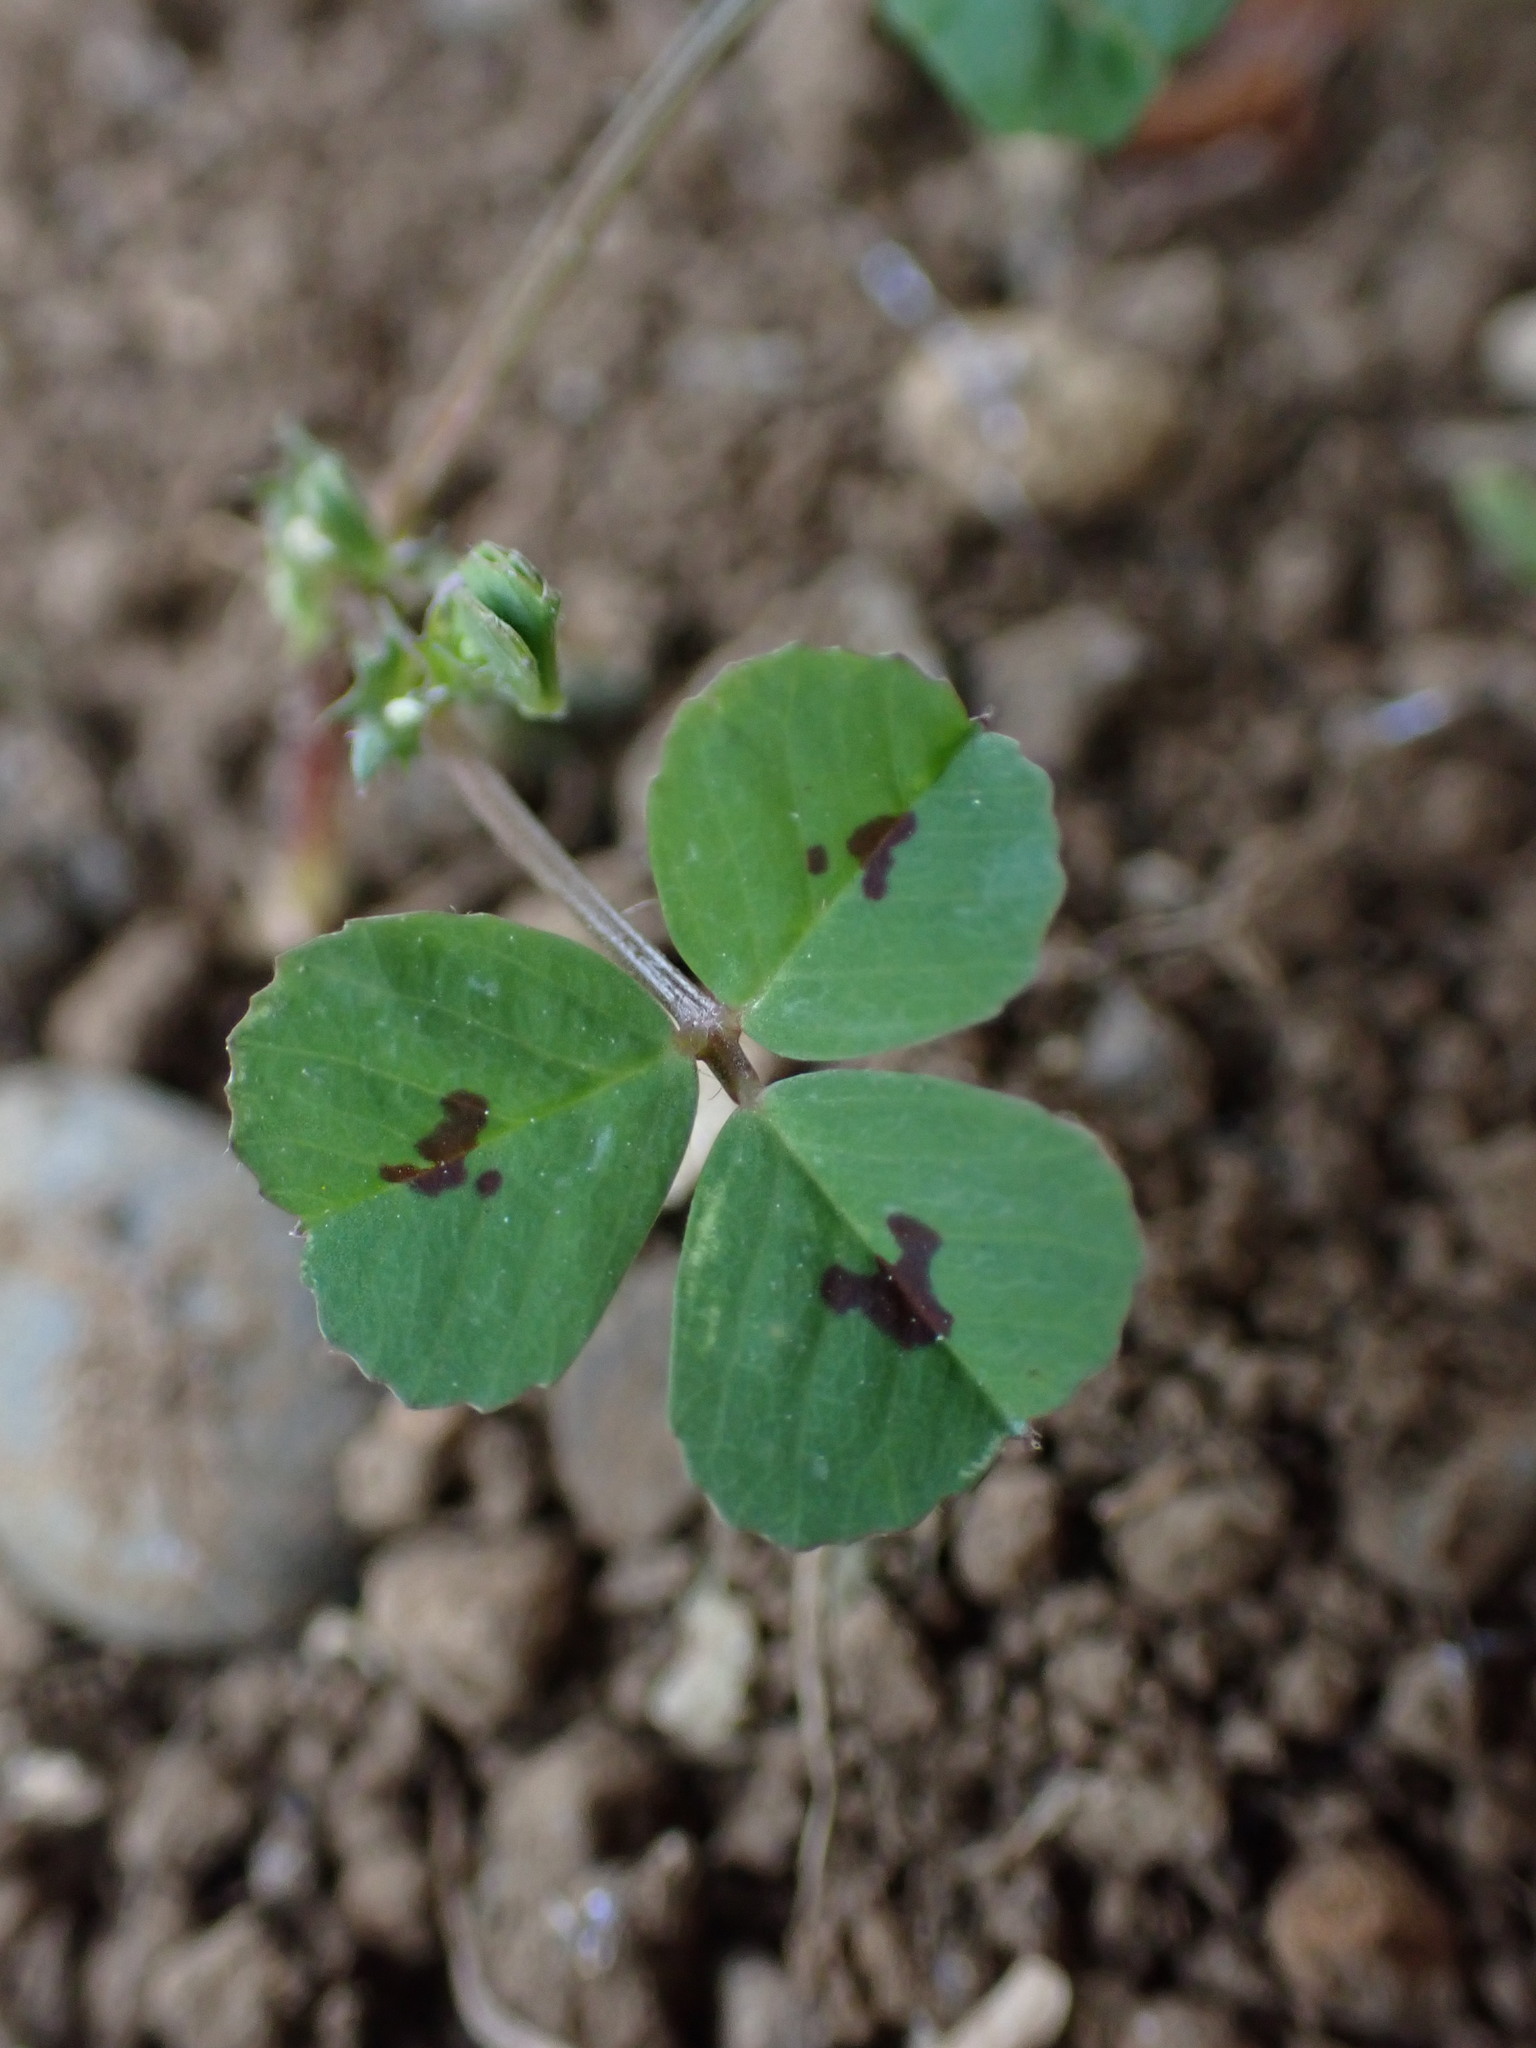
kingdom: Plantae
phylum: Tracheophyta
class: Magnoliopsida
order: Fabales
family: Fabaceae
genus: Medicago
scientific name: Medicago arabica
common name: Spotted medick
